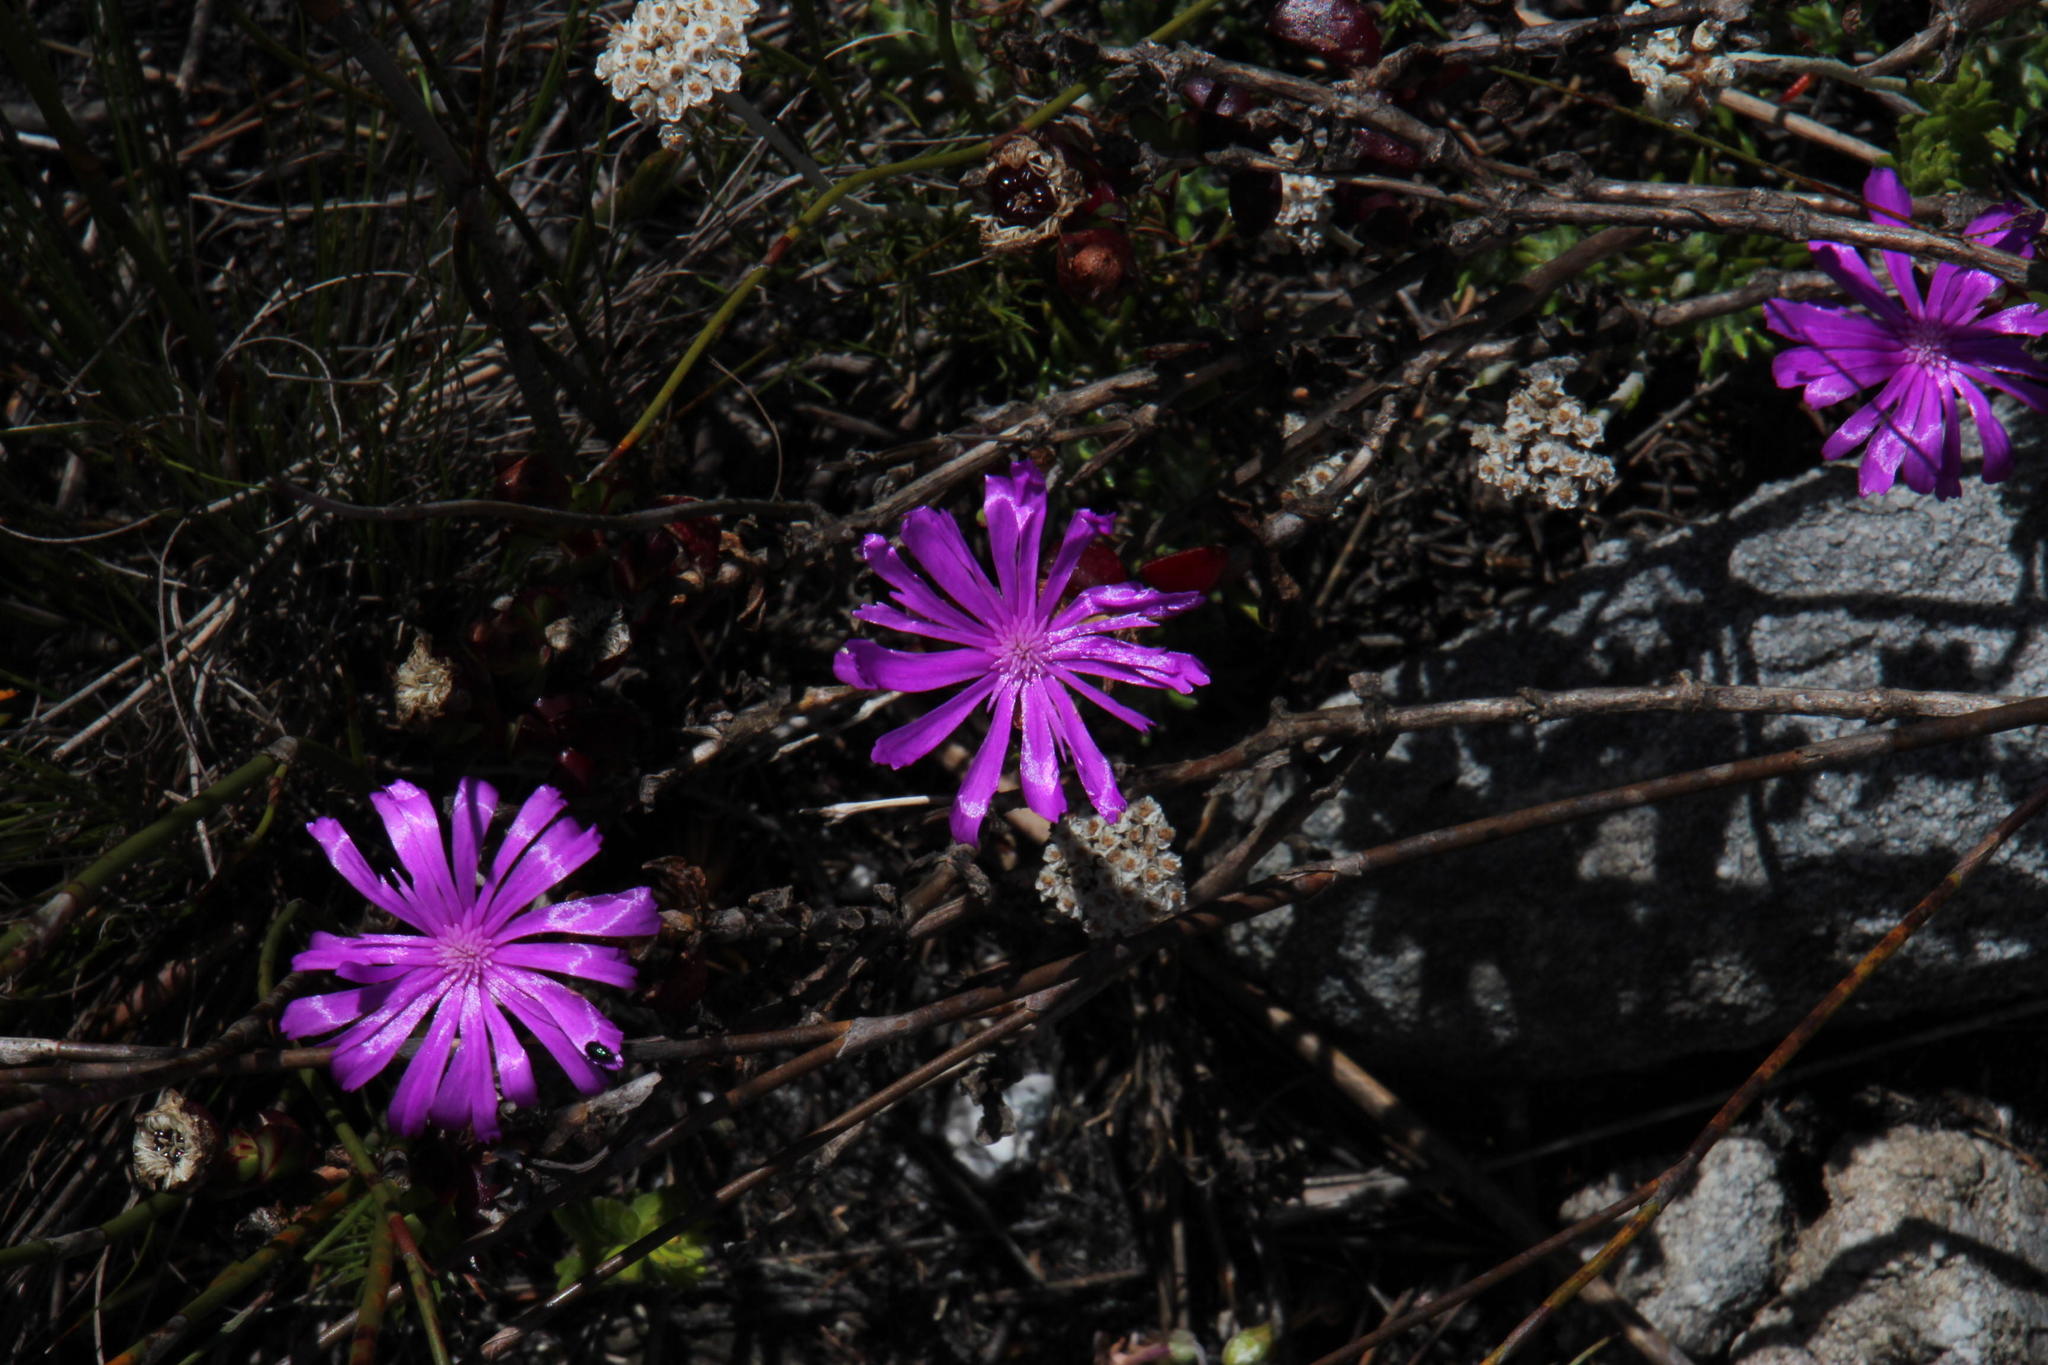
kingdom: Plantae
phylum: Tracheophyta
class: Magnoliopsida
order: Caryophyllales
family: Aizoaceae
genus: Erepsia
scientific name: Erepsia inclaudens
